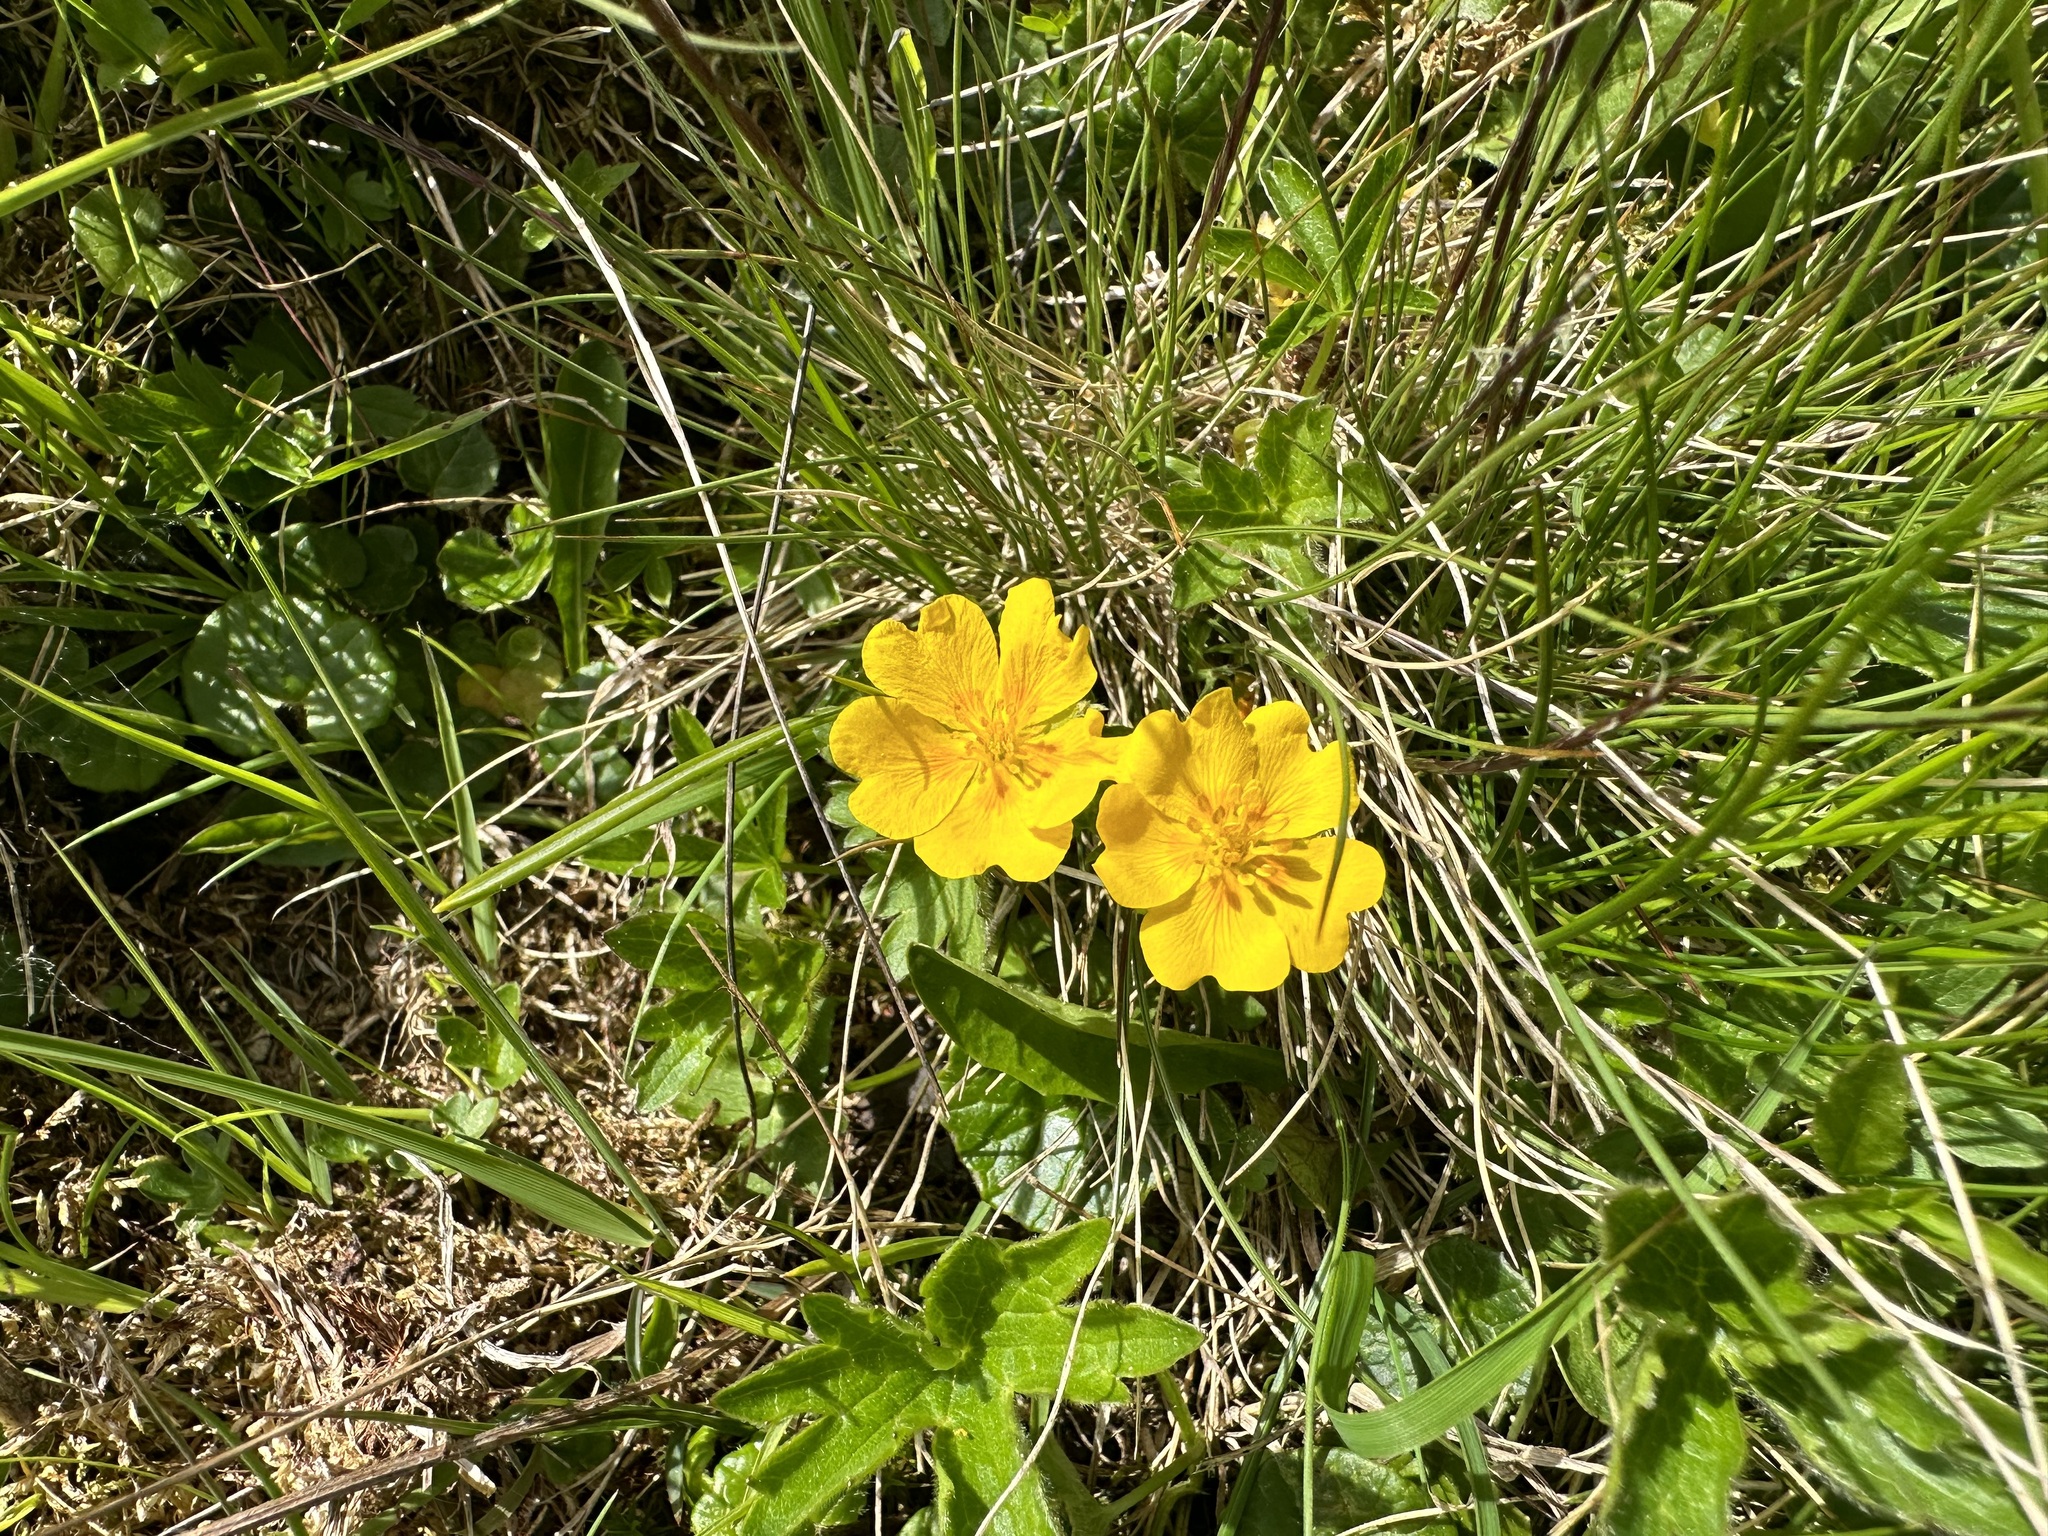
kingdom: Plantae
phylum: Tracheophyta
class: Magnoliopsida
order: Rosales
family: Rosaceae
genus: Potentilla
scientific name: Potentilla aurea
